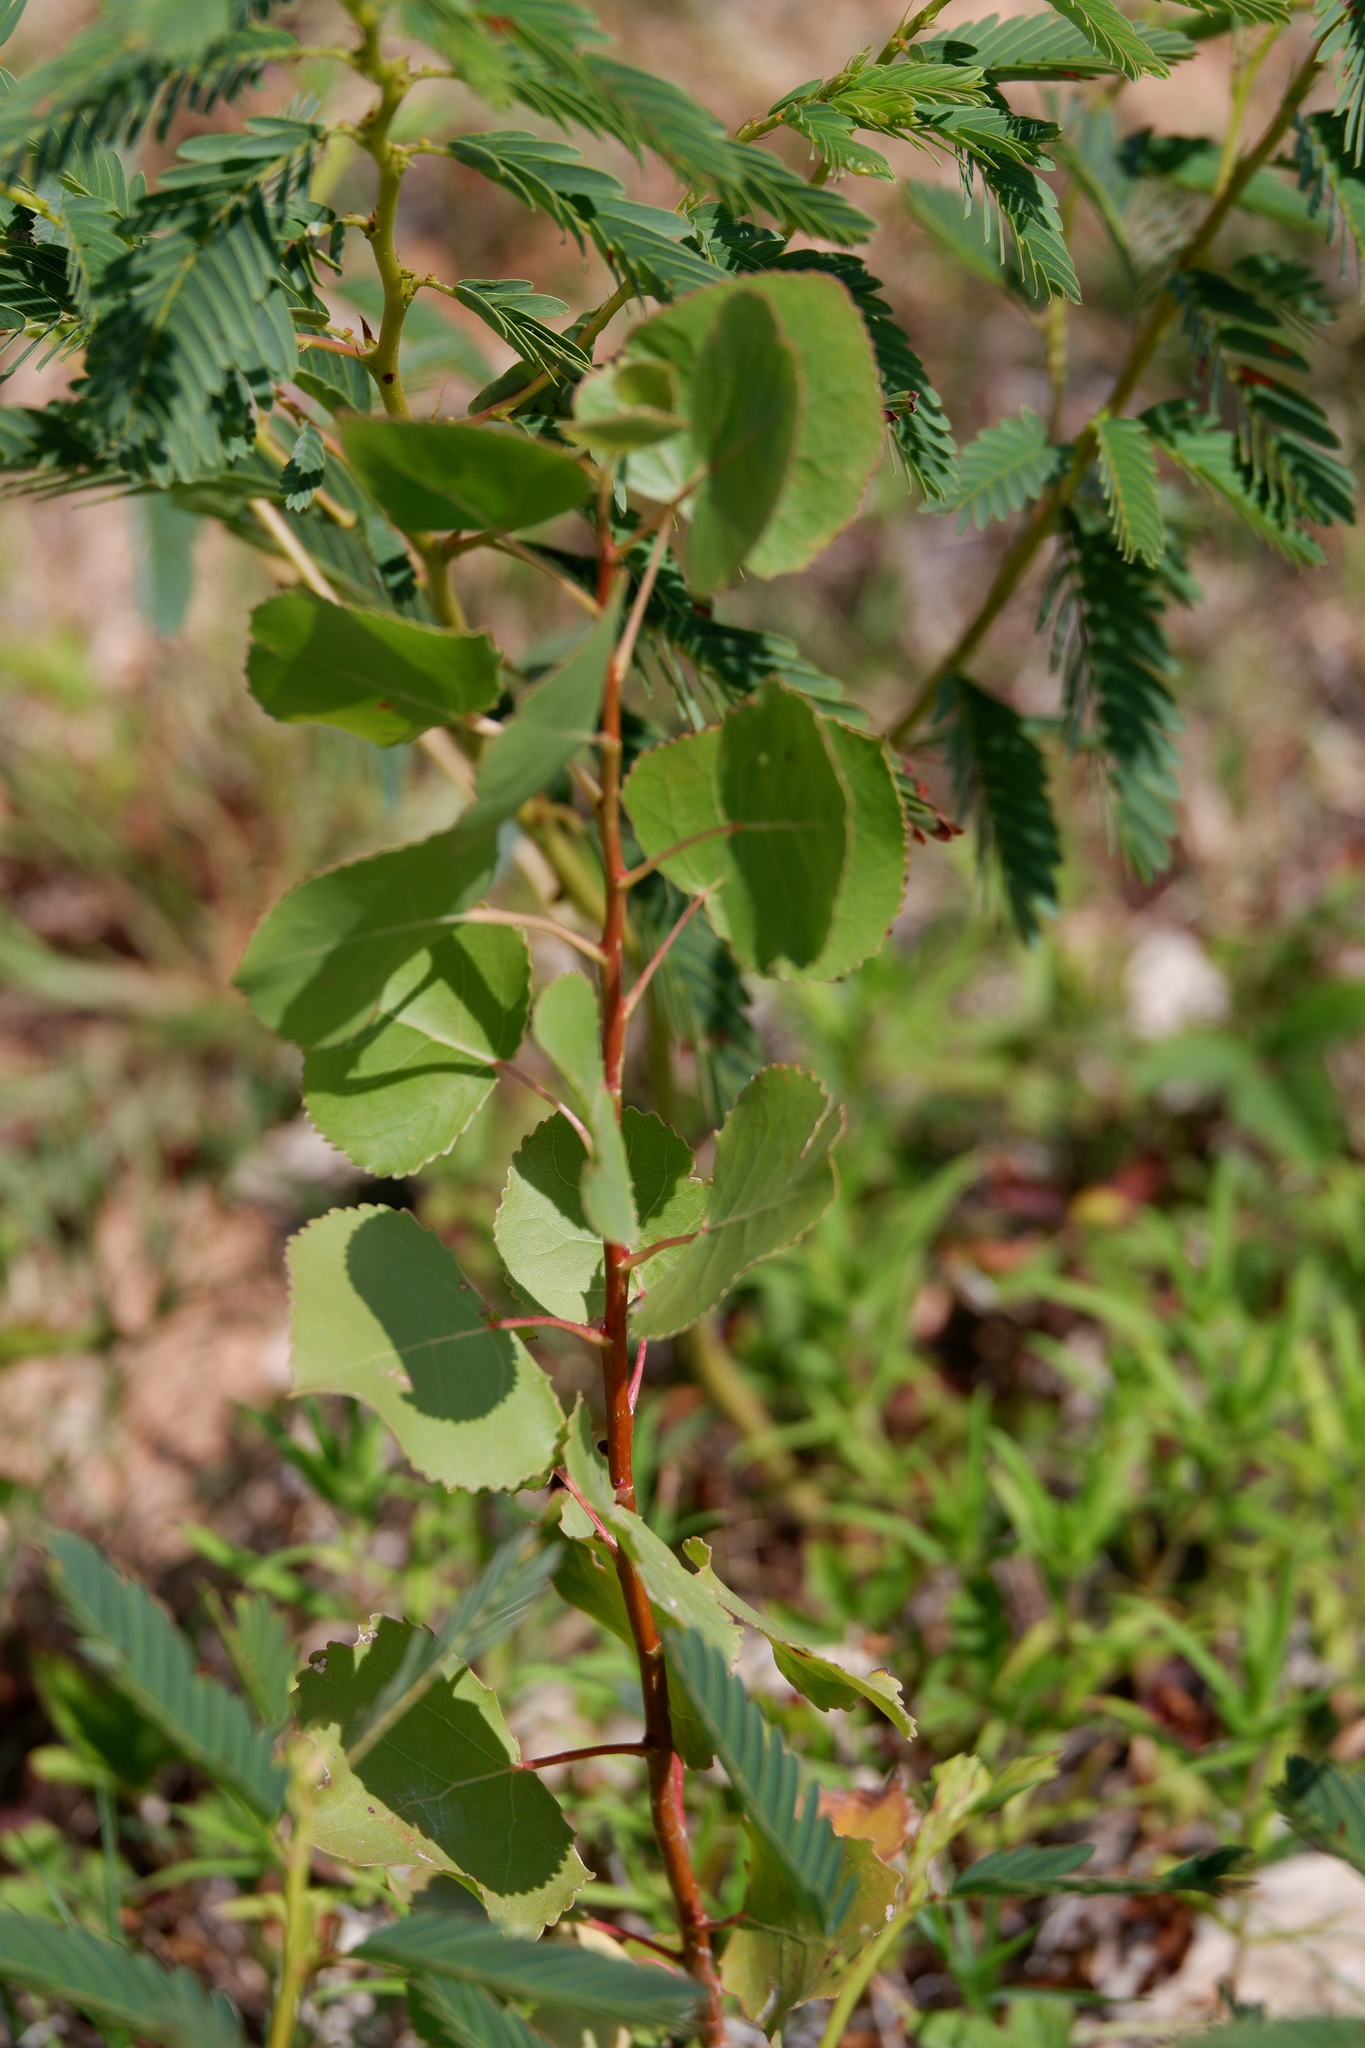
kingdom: Plantae
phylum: Tracheophyta
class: Magnoliopsida
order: Malpighiales
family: Salicaceae
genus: Populus
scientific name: Populus deltoides
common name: Eastern cottonwood
